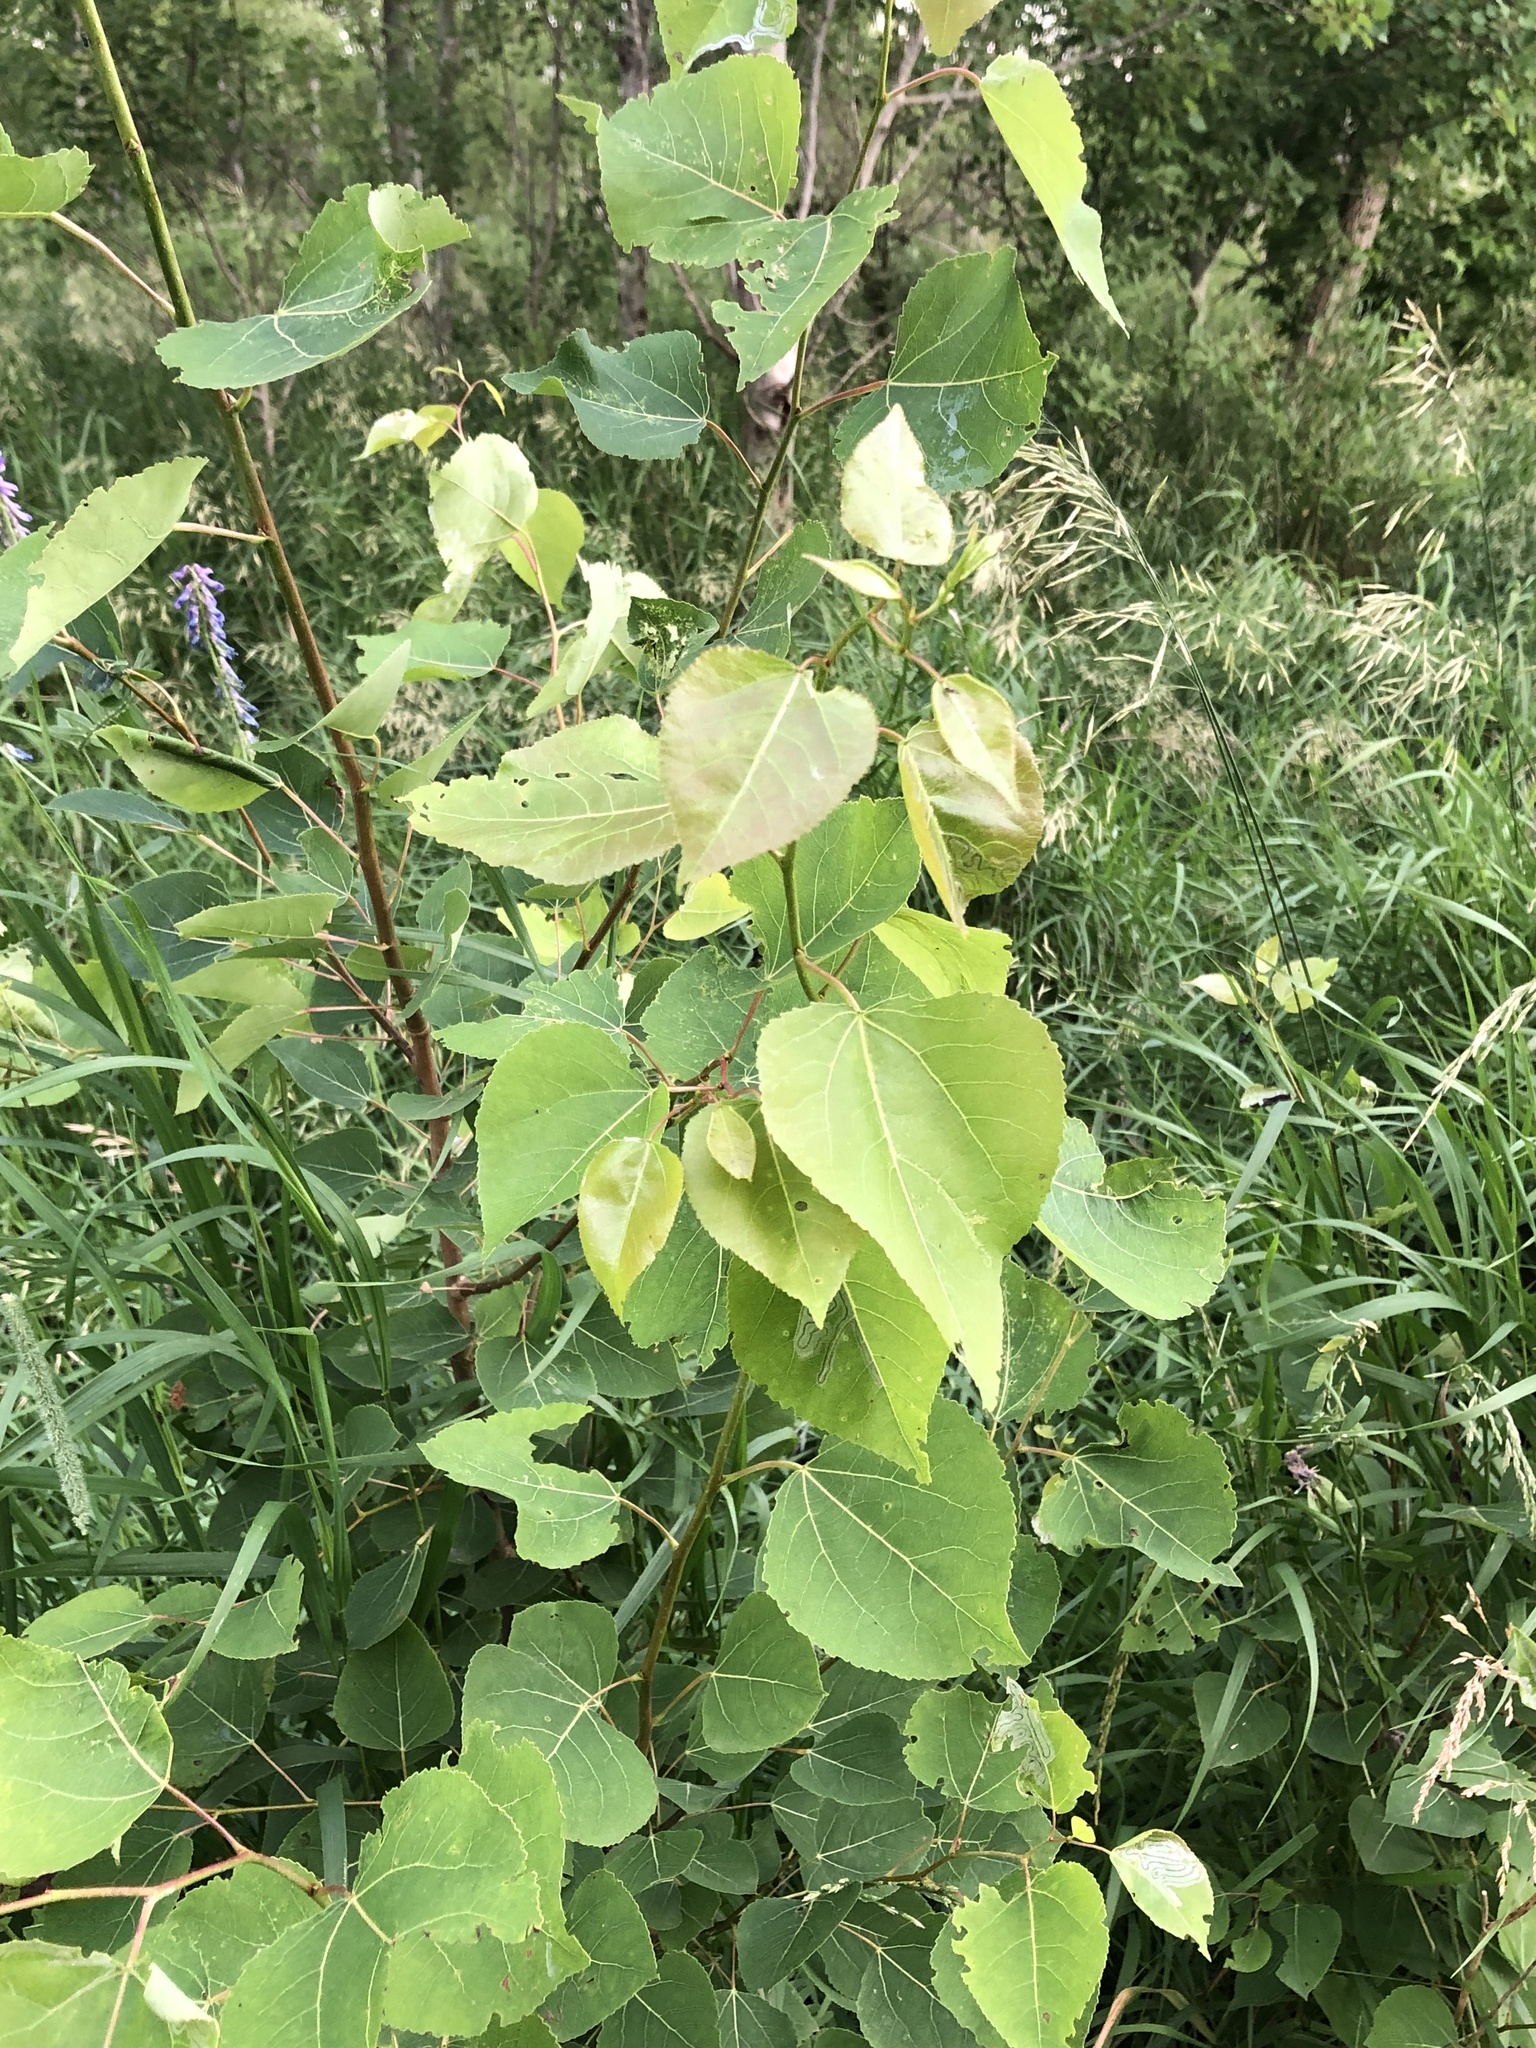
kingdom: Plantae
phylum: Tracheophyta
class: Magnoliopsida
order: Malpighiales
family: Salicaceae
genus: Populus
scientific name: Populus tremuloides
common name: Quaking aspen
